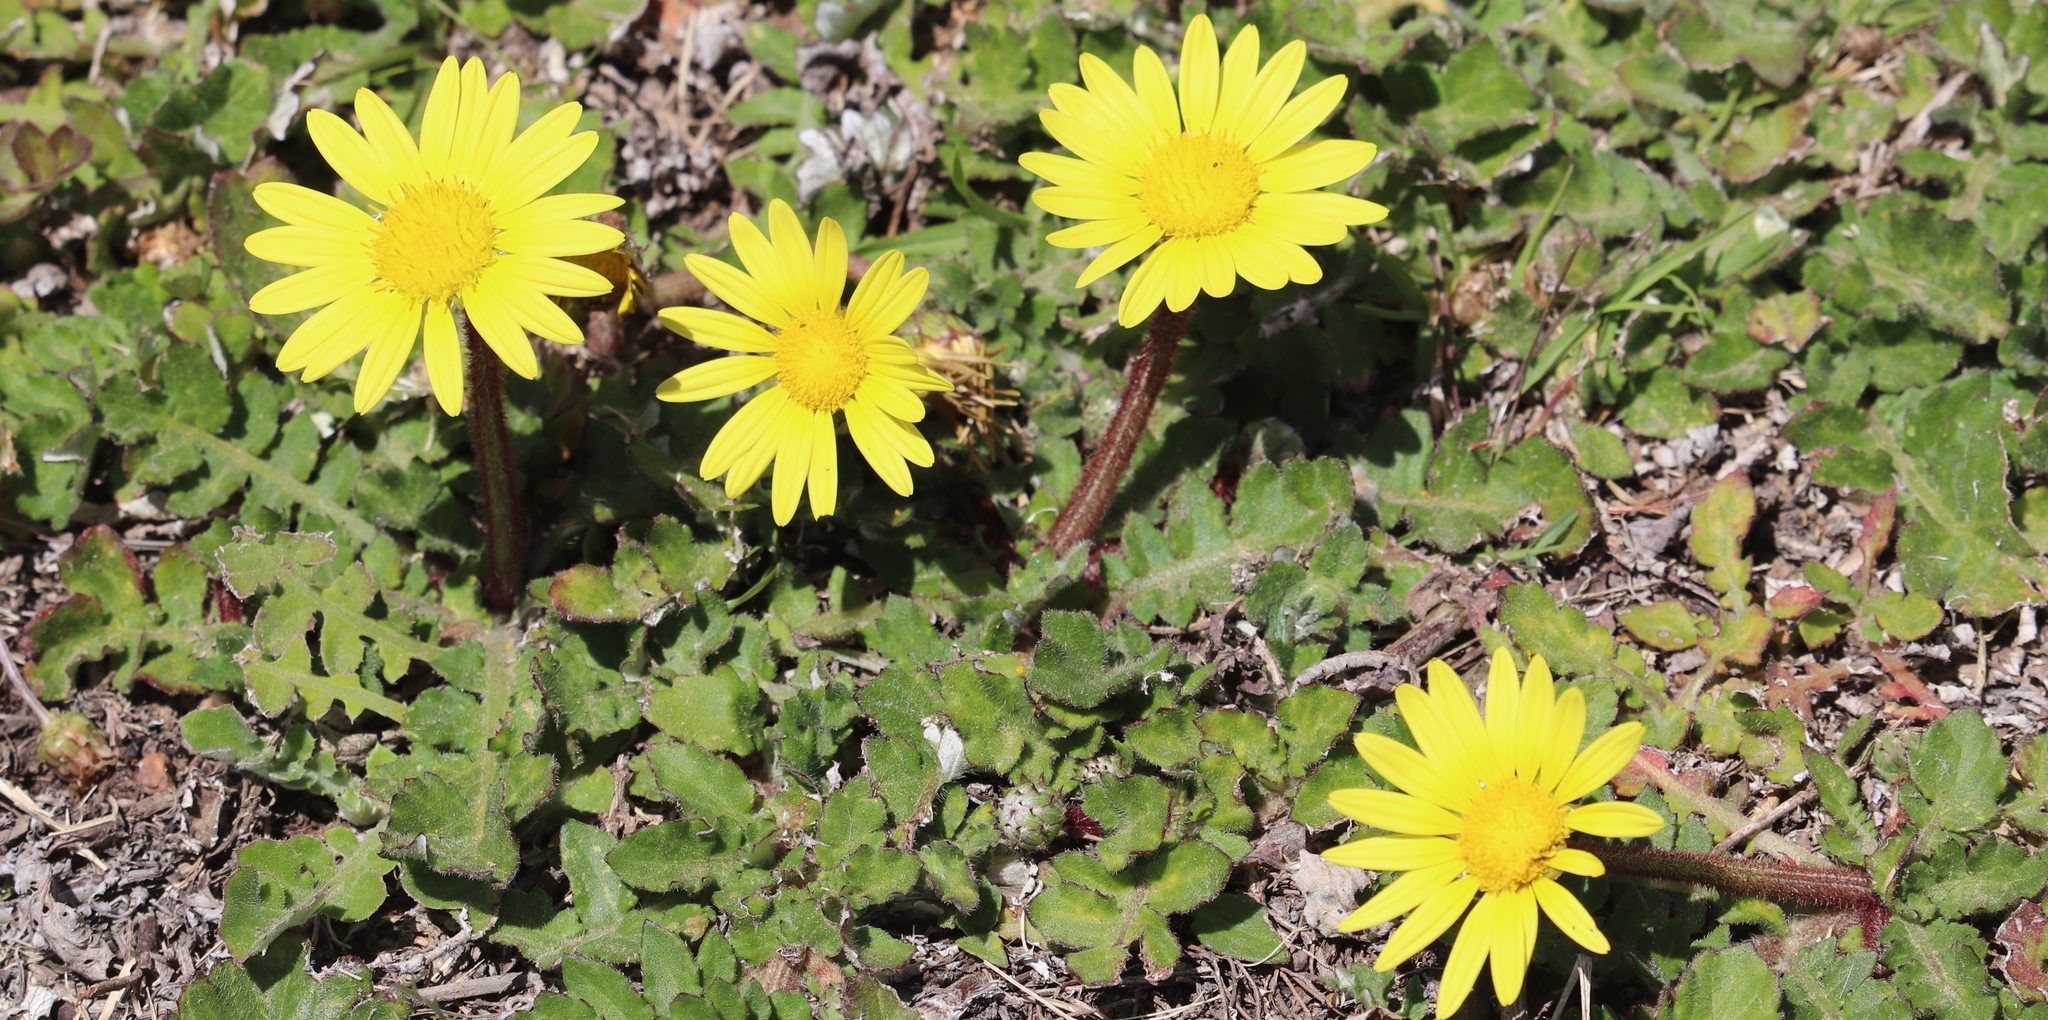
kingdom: Plantae
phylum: Tracheophyta
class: Magnoliopsida
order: Asterales
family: Asteraceae
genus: Arctotheca
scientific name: Arctotheca prostrata
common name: Capeweed
